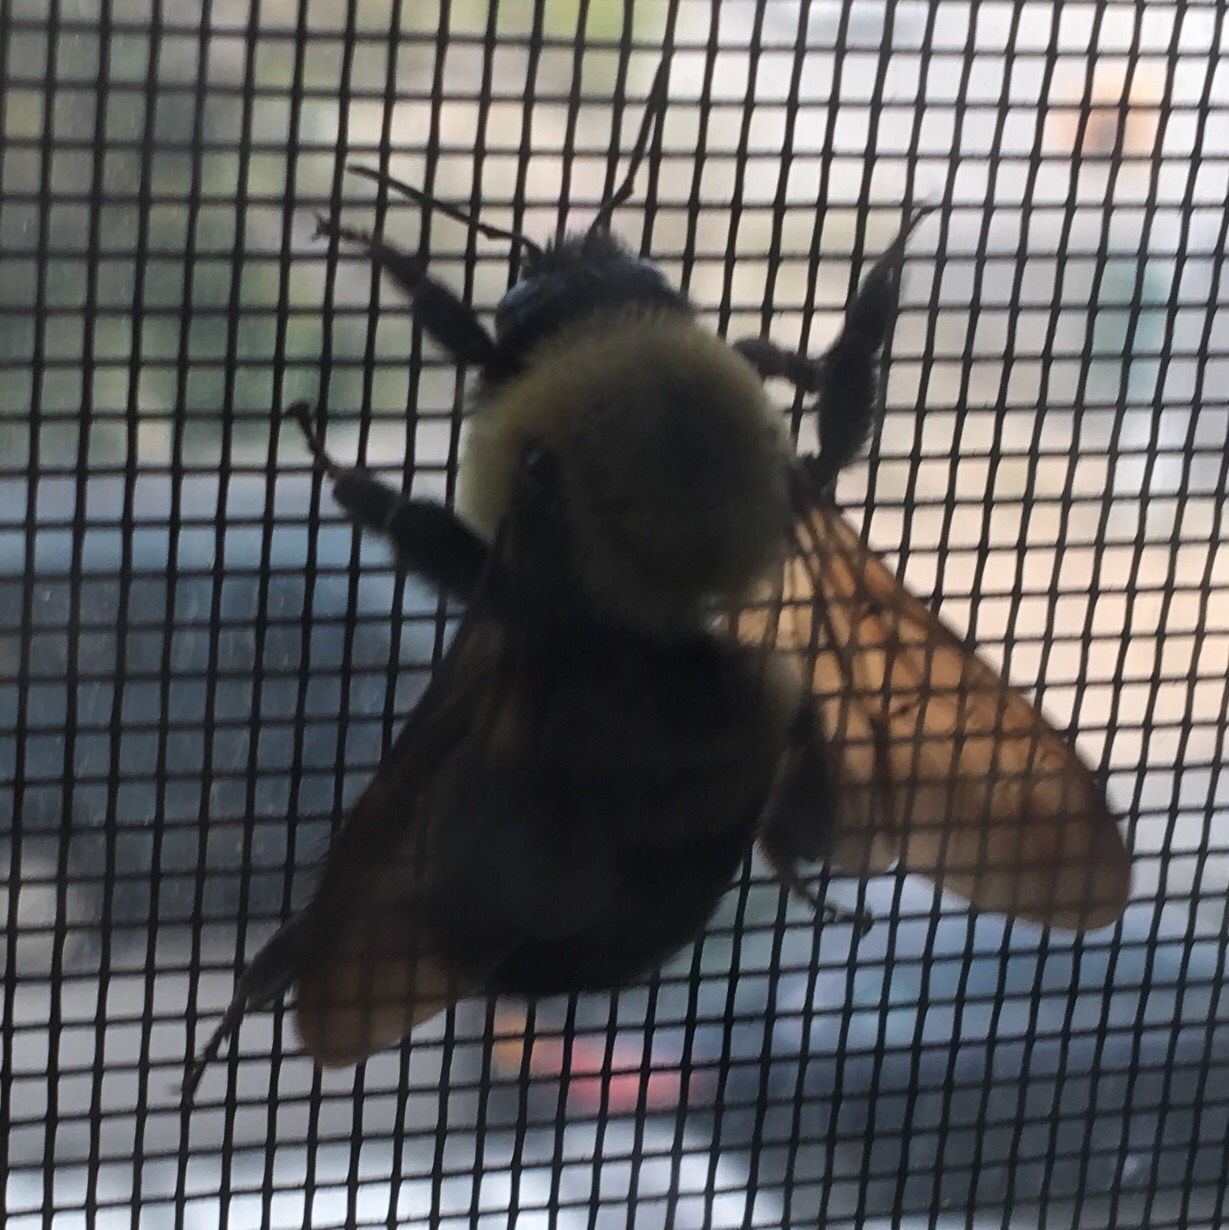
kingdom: Animalia
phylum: Arthropoda
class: Insecta
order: Hymenoptera
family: Apidae
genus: Bombus
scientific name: Bombus griseocollis
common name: Brown-belted bumble bee
